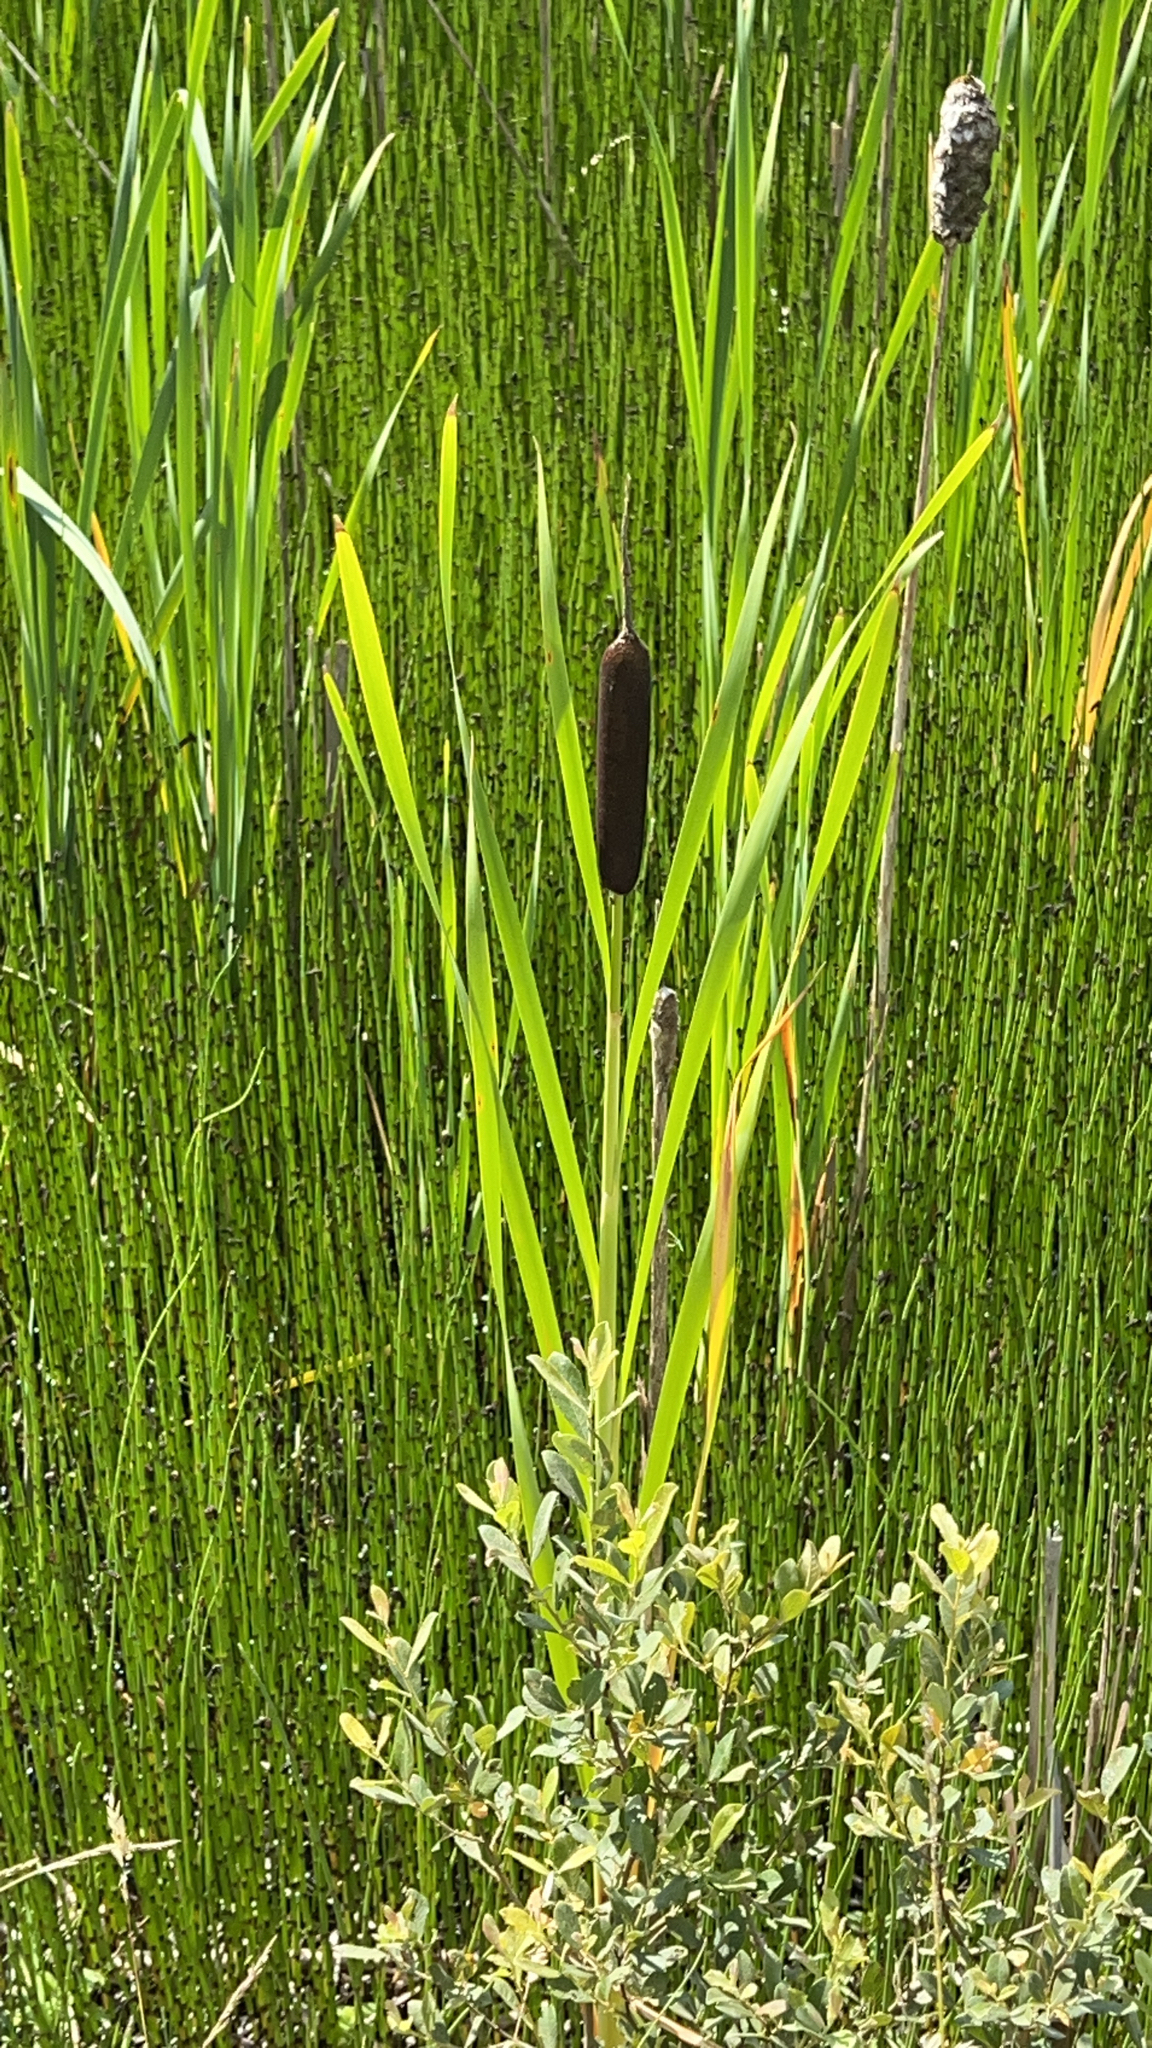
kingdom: Plantae
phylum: Tracheophyta
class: Liliopsida
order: Poales
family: Typhaceae
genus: Typha
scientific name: Typha latifolia
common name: Broadleaf cattail
